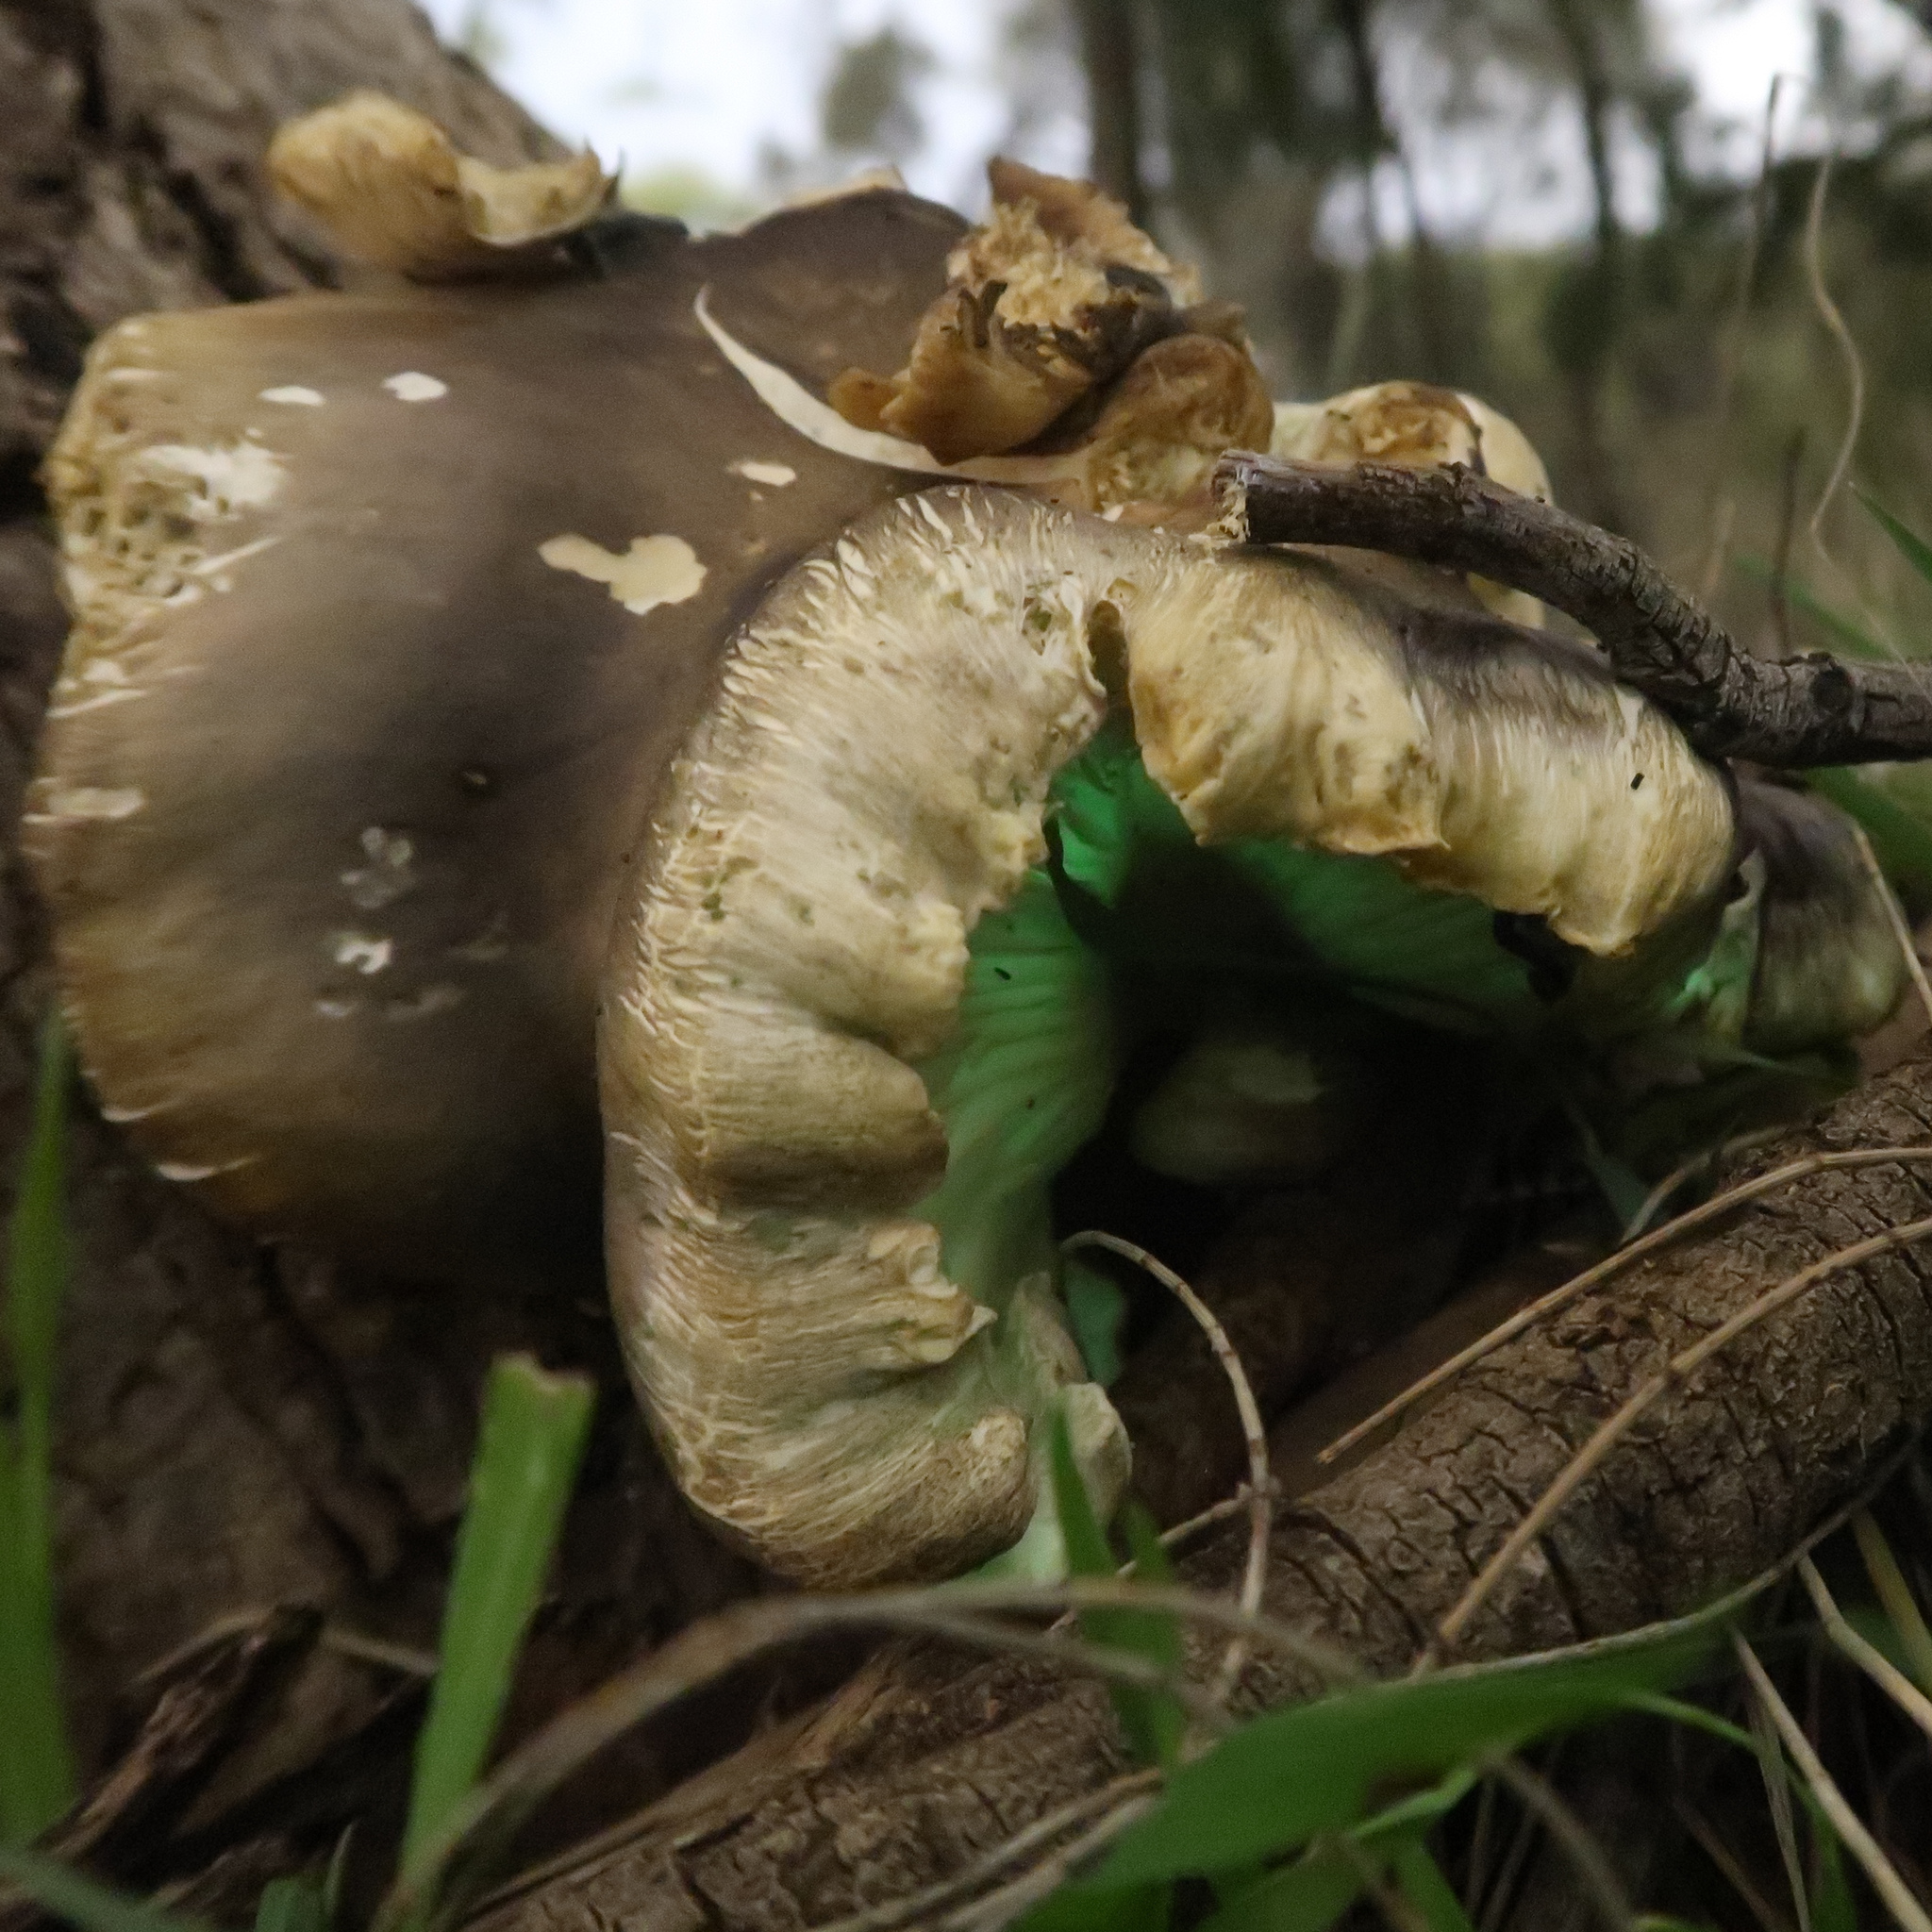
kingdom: Fungi
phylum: Basidiomycota
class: Agaricomycetes
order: Agaricales
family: Omphalotaceae
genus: Omphalotus
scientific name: Omphalotus nidiformis
